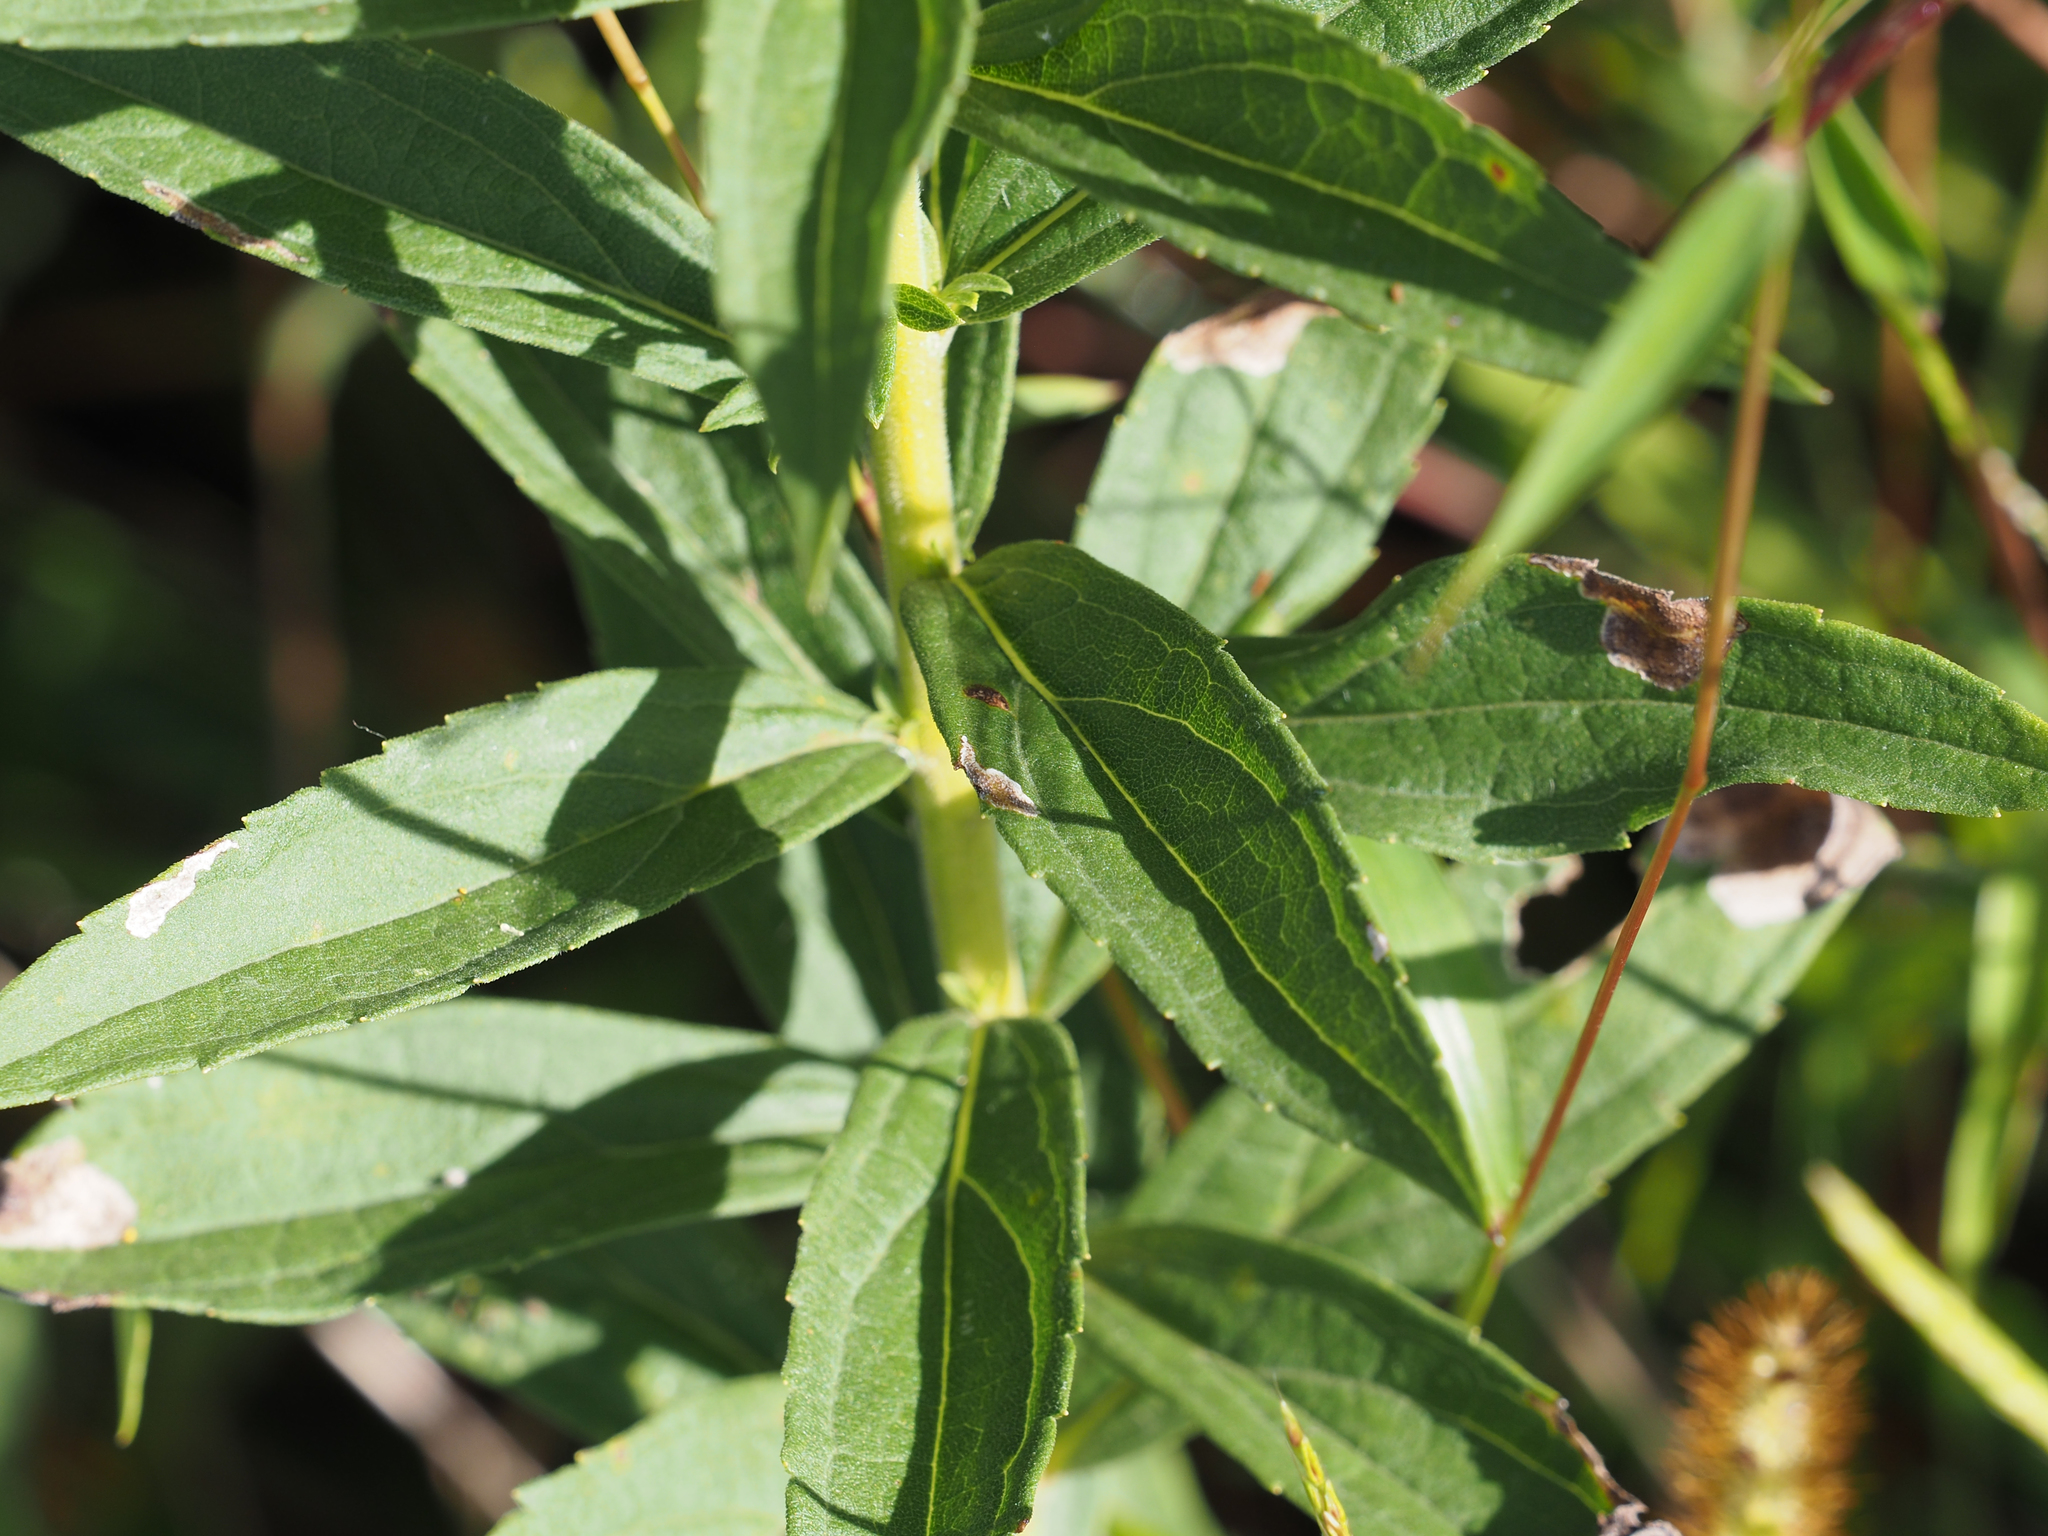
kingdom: Plantae
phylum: Tracheophyta
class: Magnoliopsida
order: Asterales
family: Asteraceae
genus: Solidago
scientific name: Solidago altissima
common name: Late goldenrod
